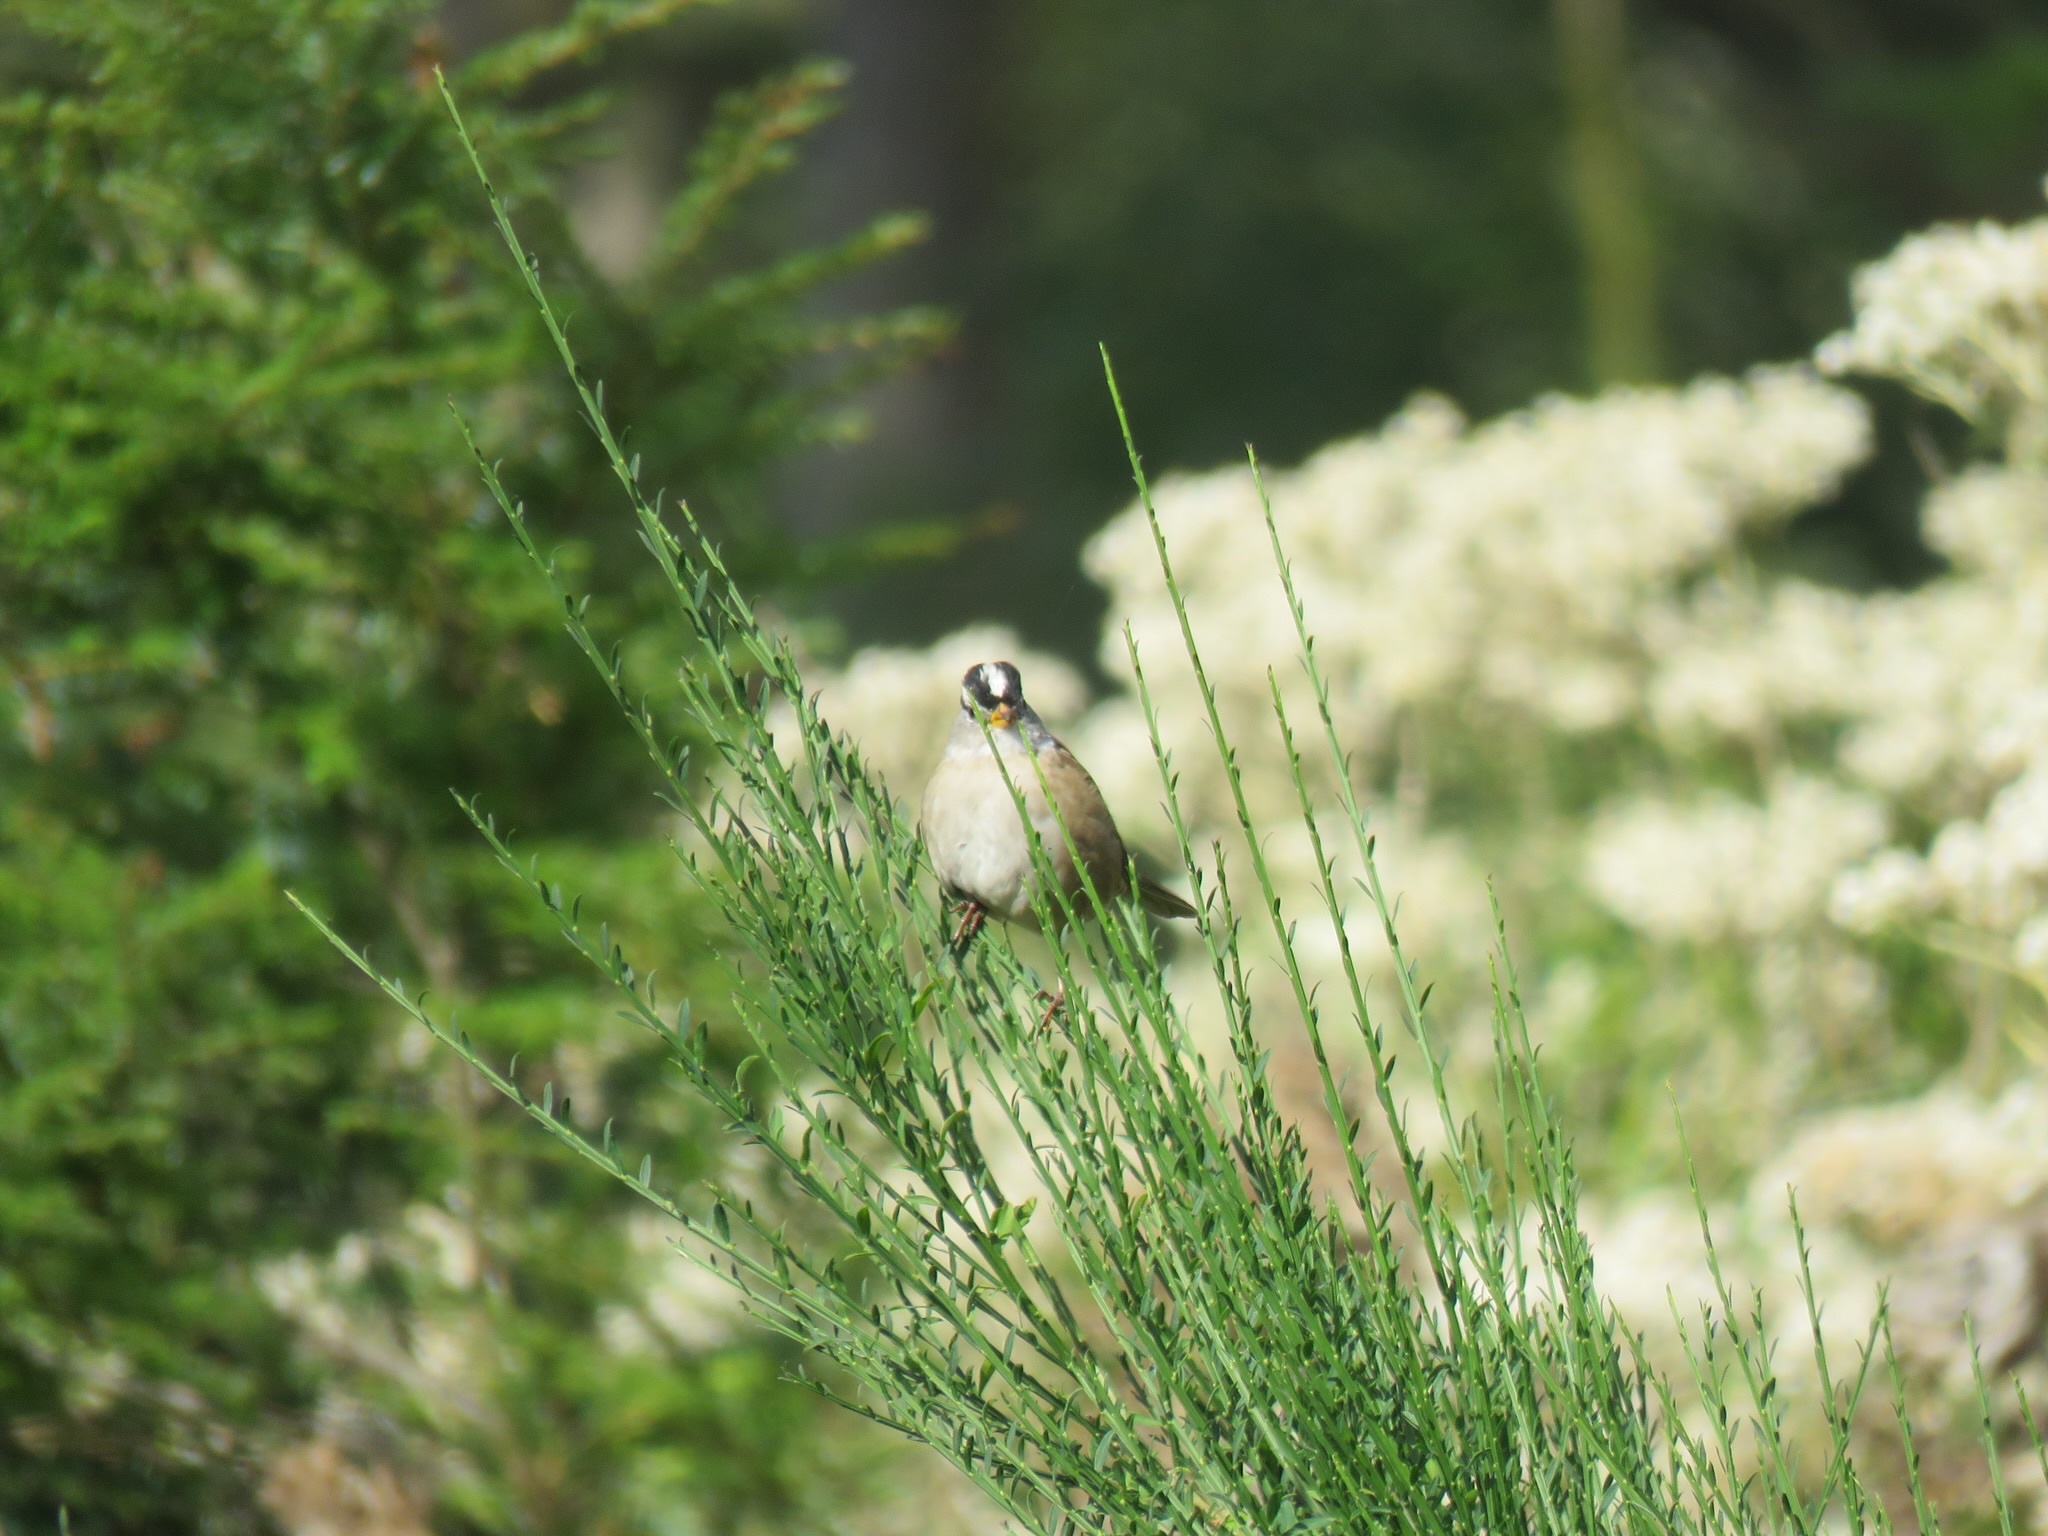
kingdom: Animalia
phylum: Chordata
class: Aves
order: Passeriformes
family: Passerellidae
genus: Zonotrichia
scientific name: Zonotrichia leucophrys
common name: White-crowned sparrow
